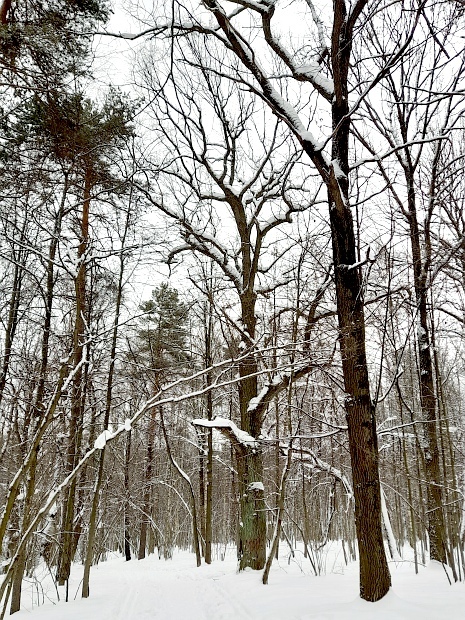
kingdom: Plantae
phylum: Tracheophyta
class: Magnoliopsida
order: Fagales
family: Fagaceae
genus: Quercus
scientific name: Quercus robur
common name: Pedunculate oak
